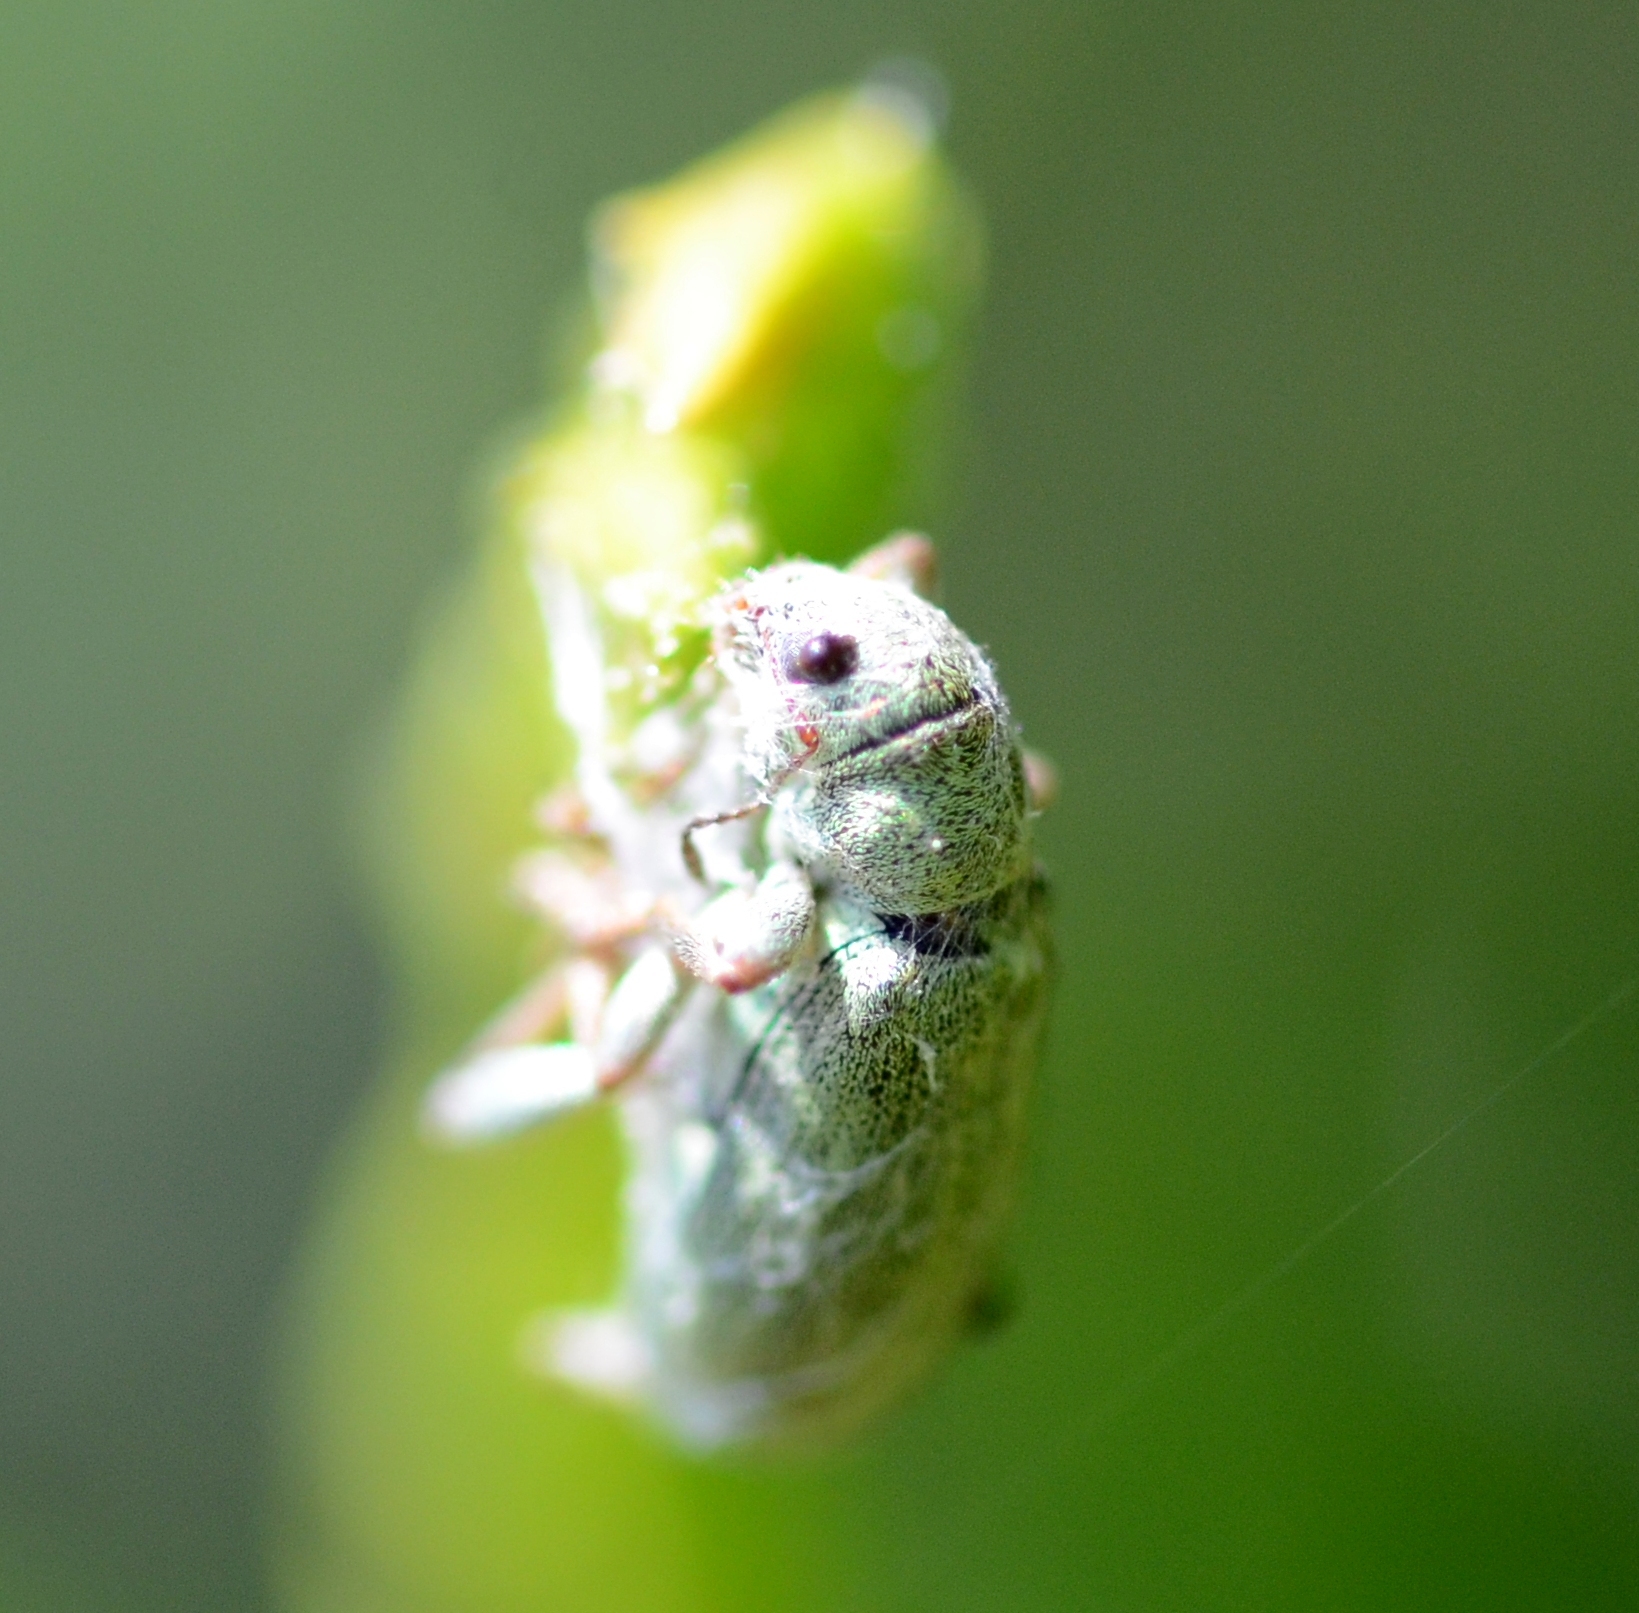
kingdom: Animalia
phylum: Arthropoda
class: Insecta
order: Coleoptera
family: Curculionidae
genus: Pachyrhinus
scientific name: Pachyrhinus lethierryi
